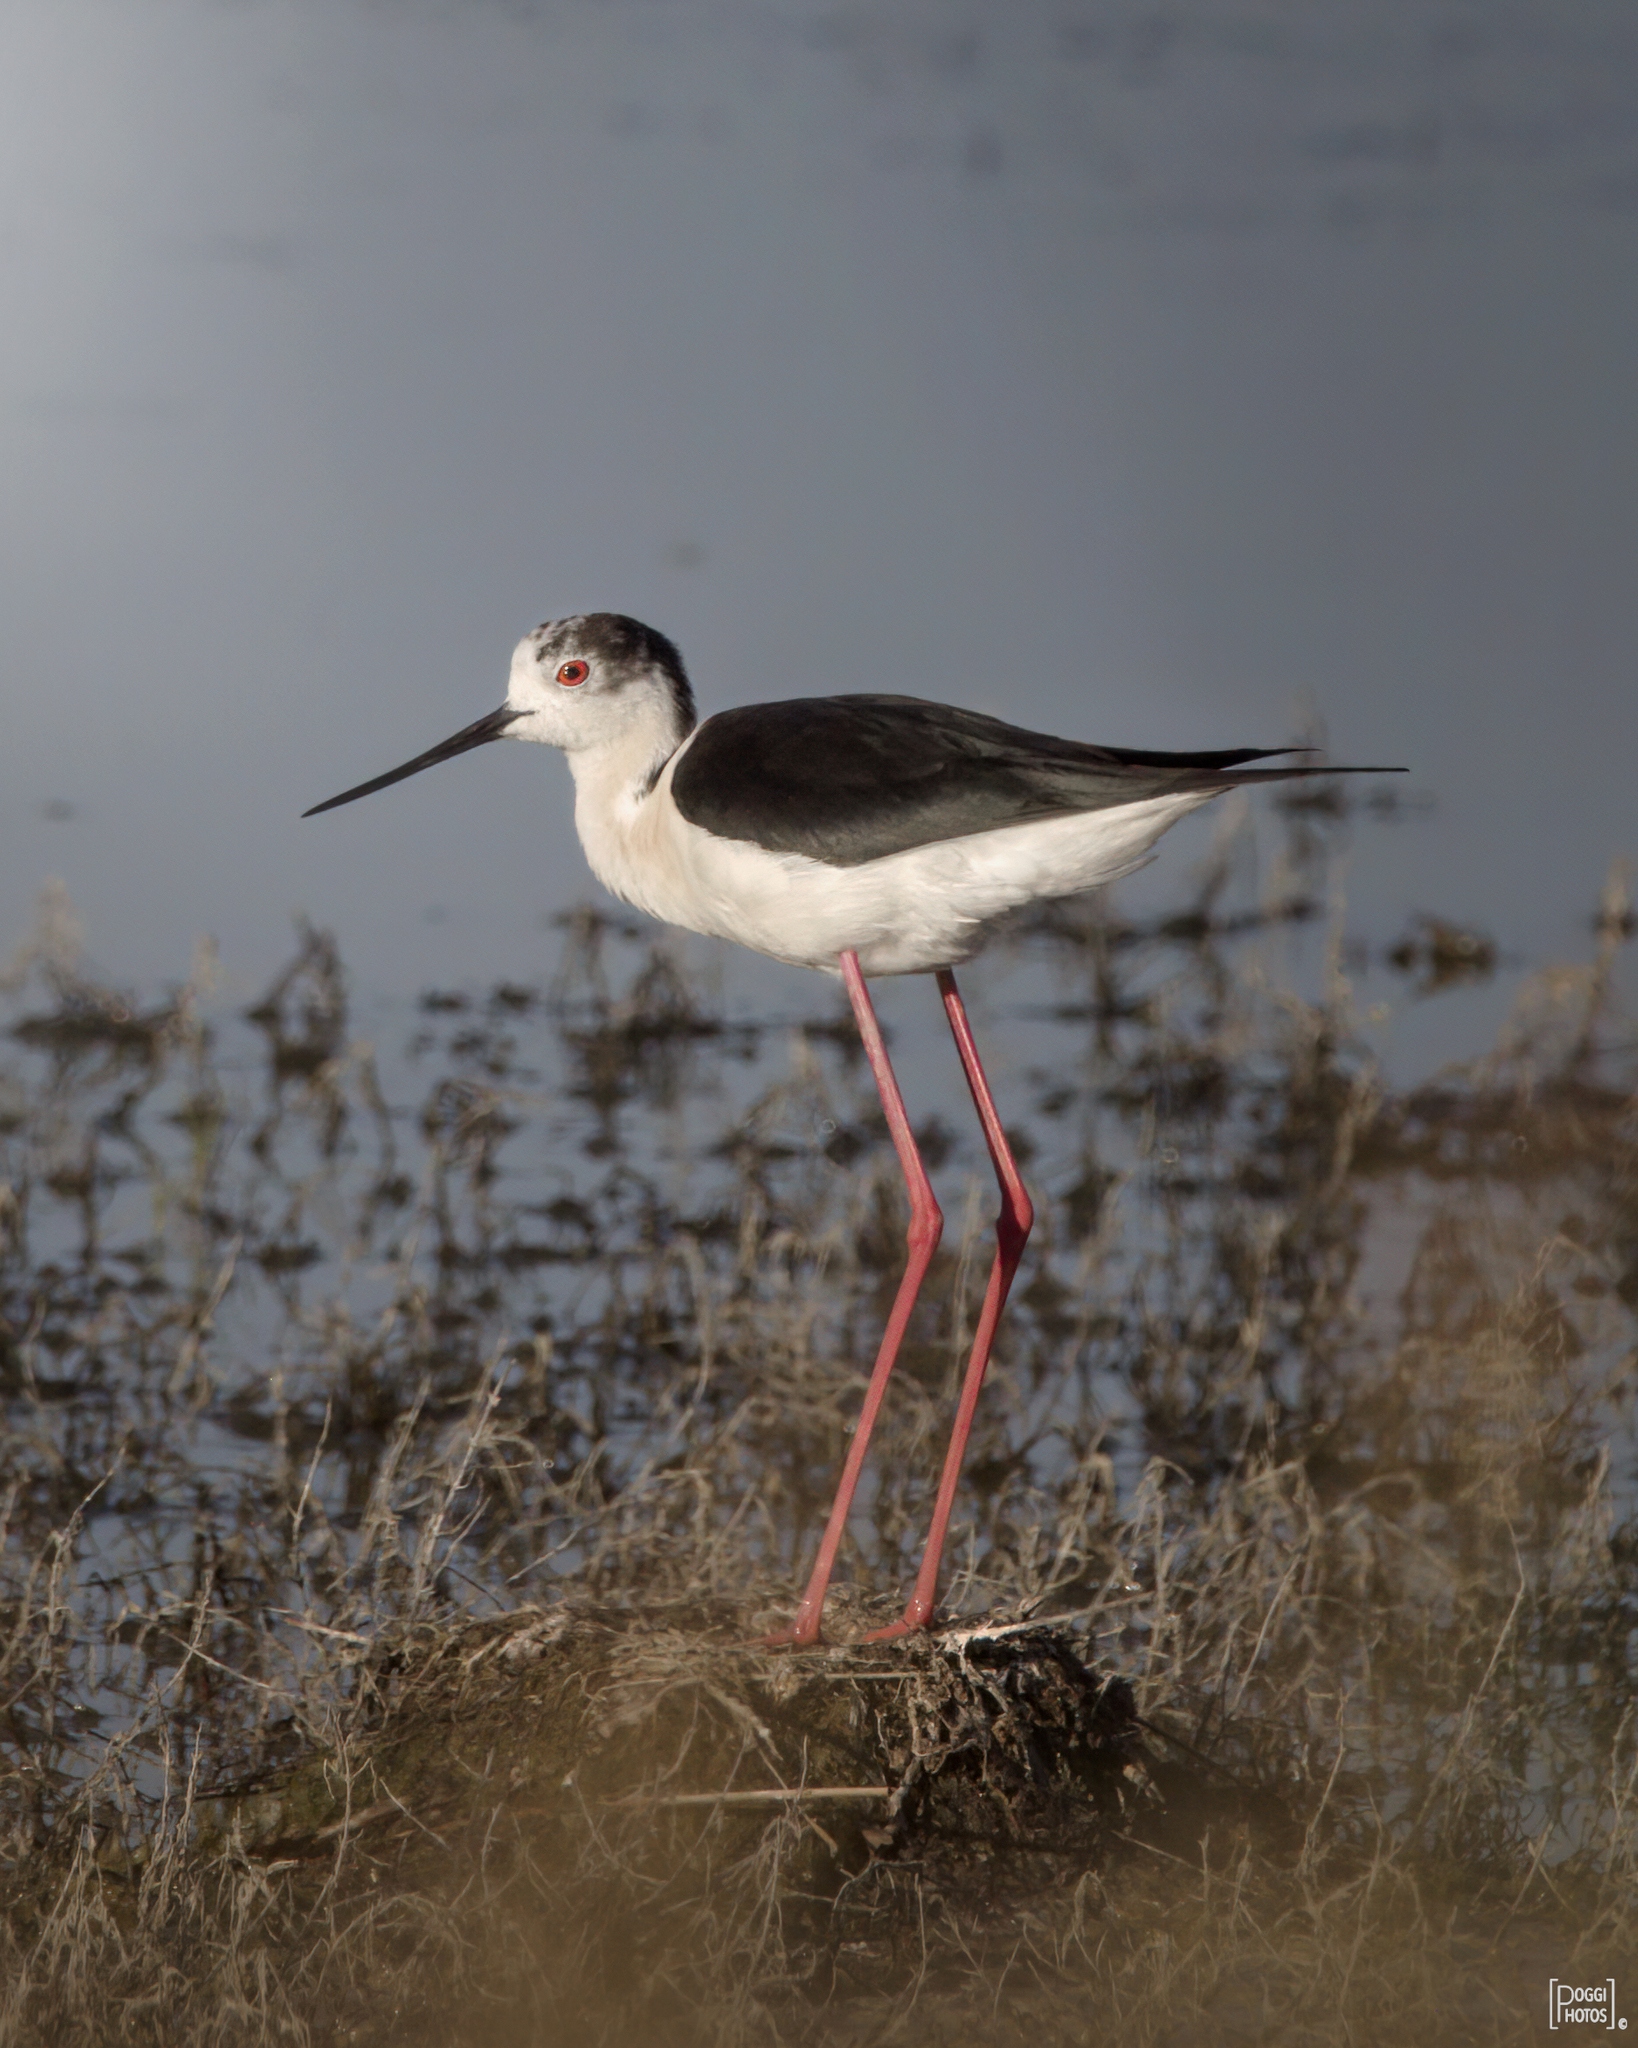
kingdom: Animalia
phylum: Chordata
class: Aves
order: Charadriiformes
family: Recurvirostridae
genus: Himantopus
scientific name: Himantopus himantopus
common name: Black-winged stilt
